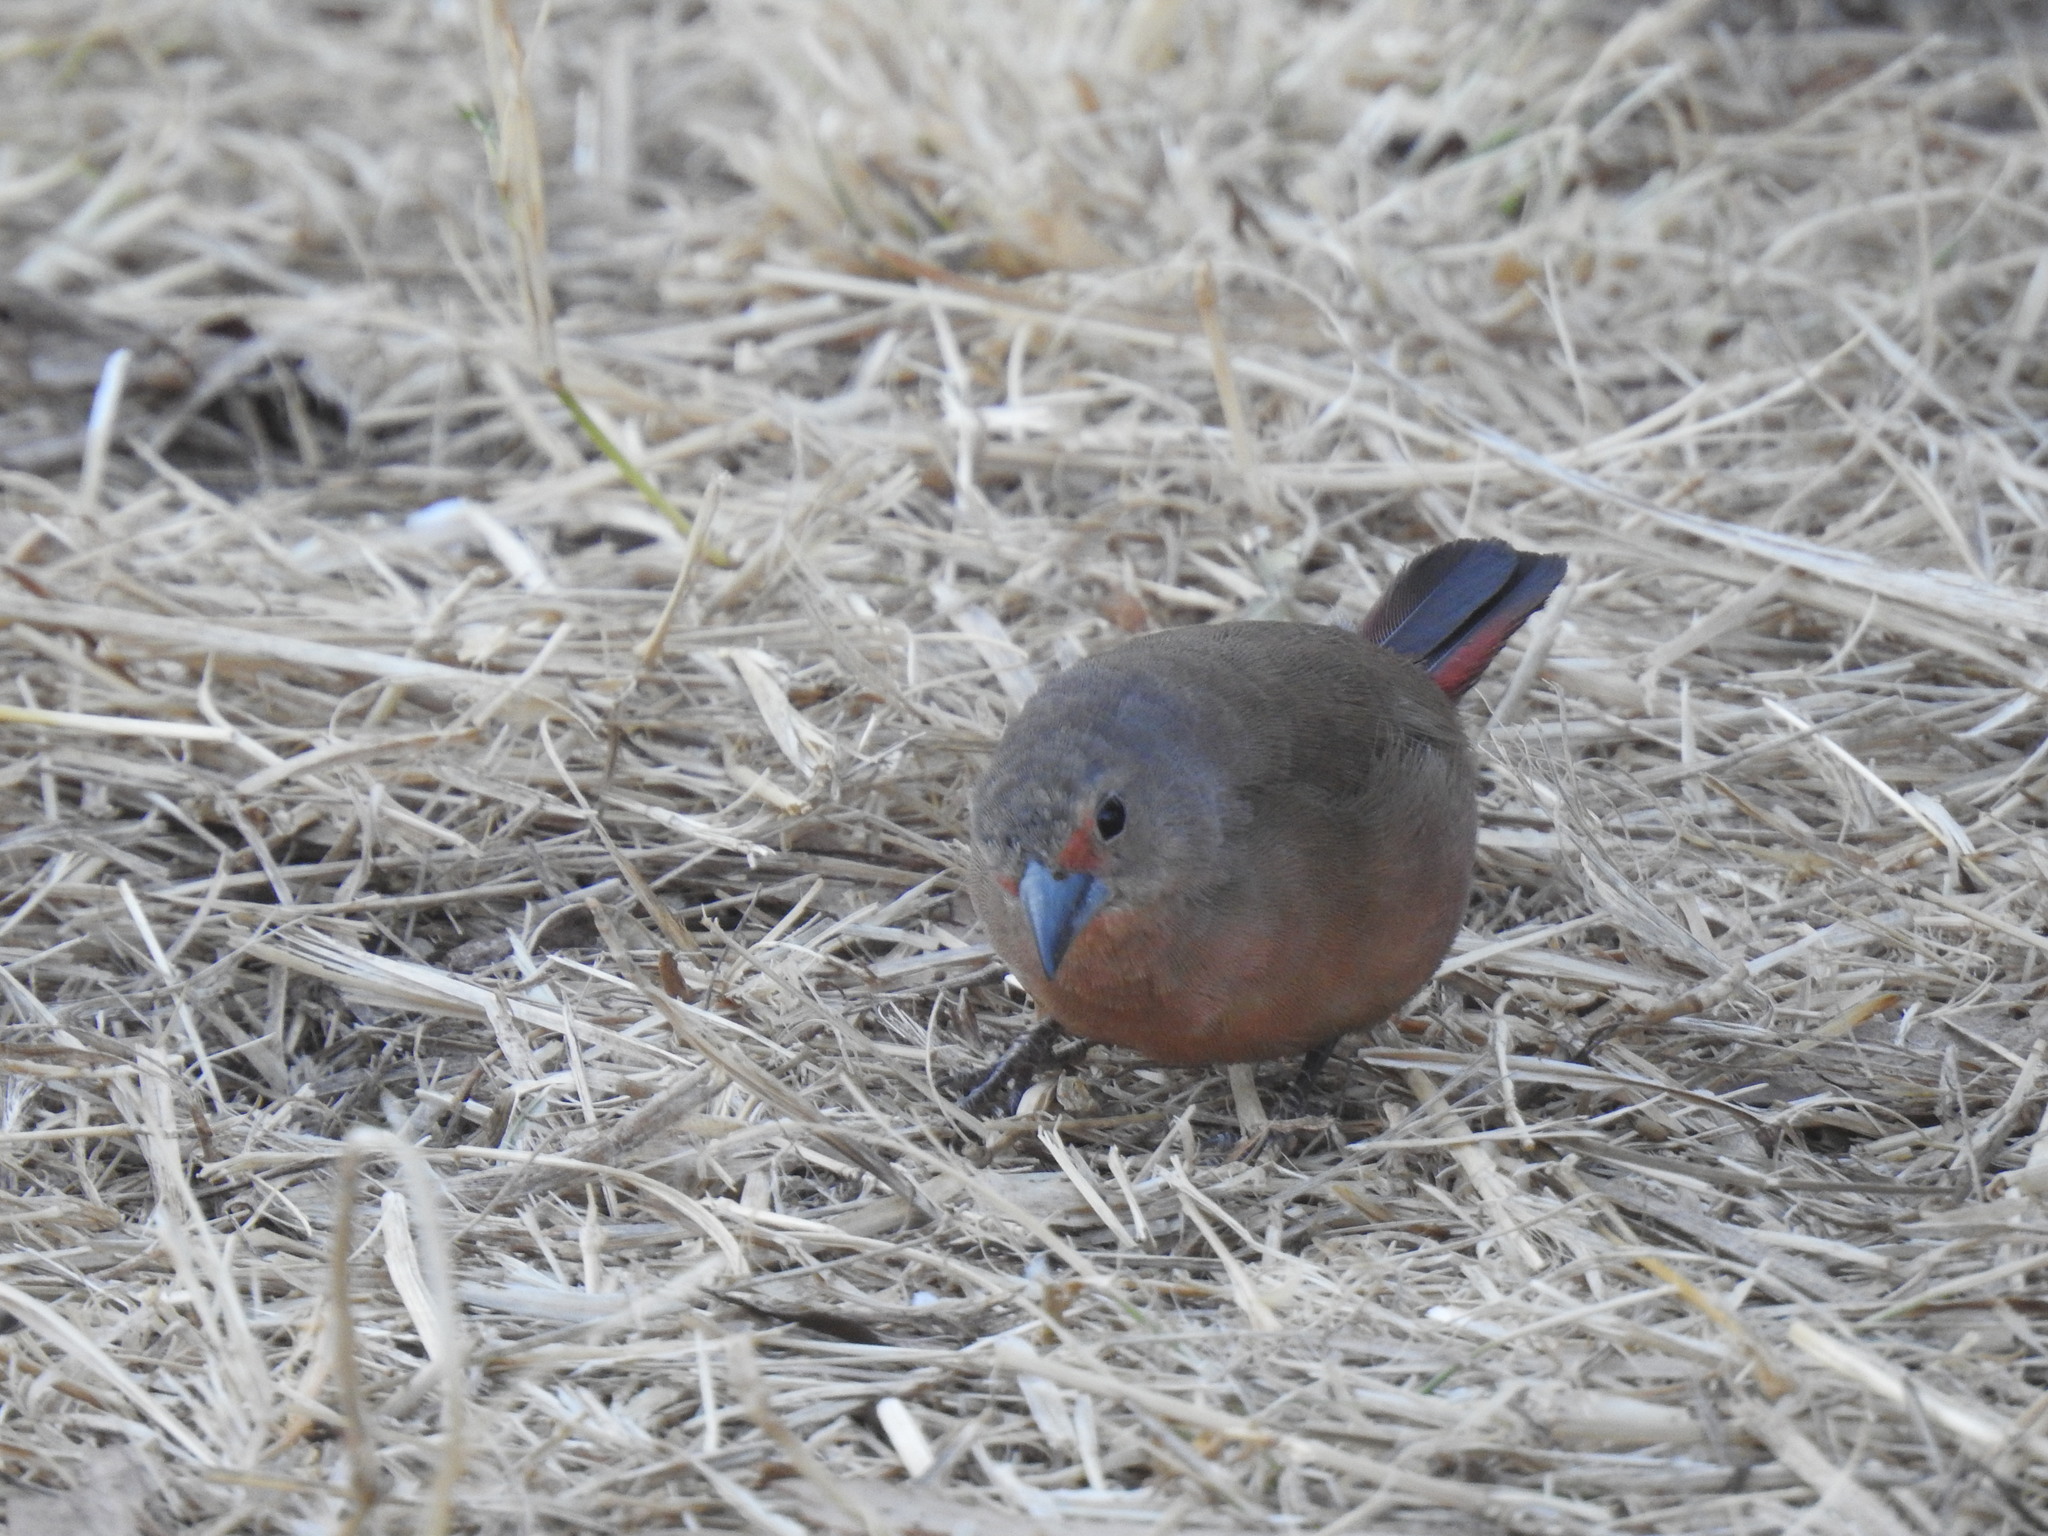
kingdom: Animalia
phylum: Chordata
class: Aves
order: Passeriformes
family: Estrildidae
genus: Lagonosticta
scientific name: Lagonosticta rubricata
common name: African firefinch
